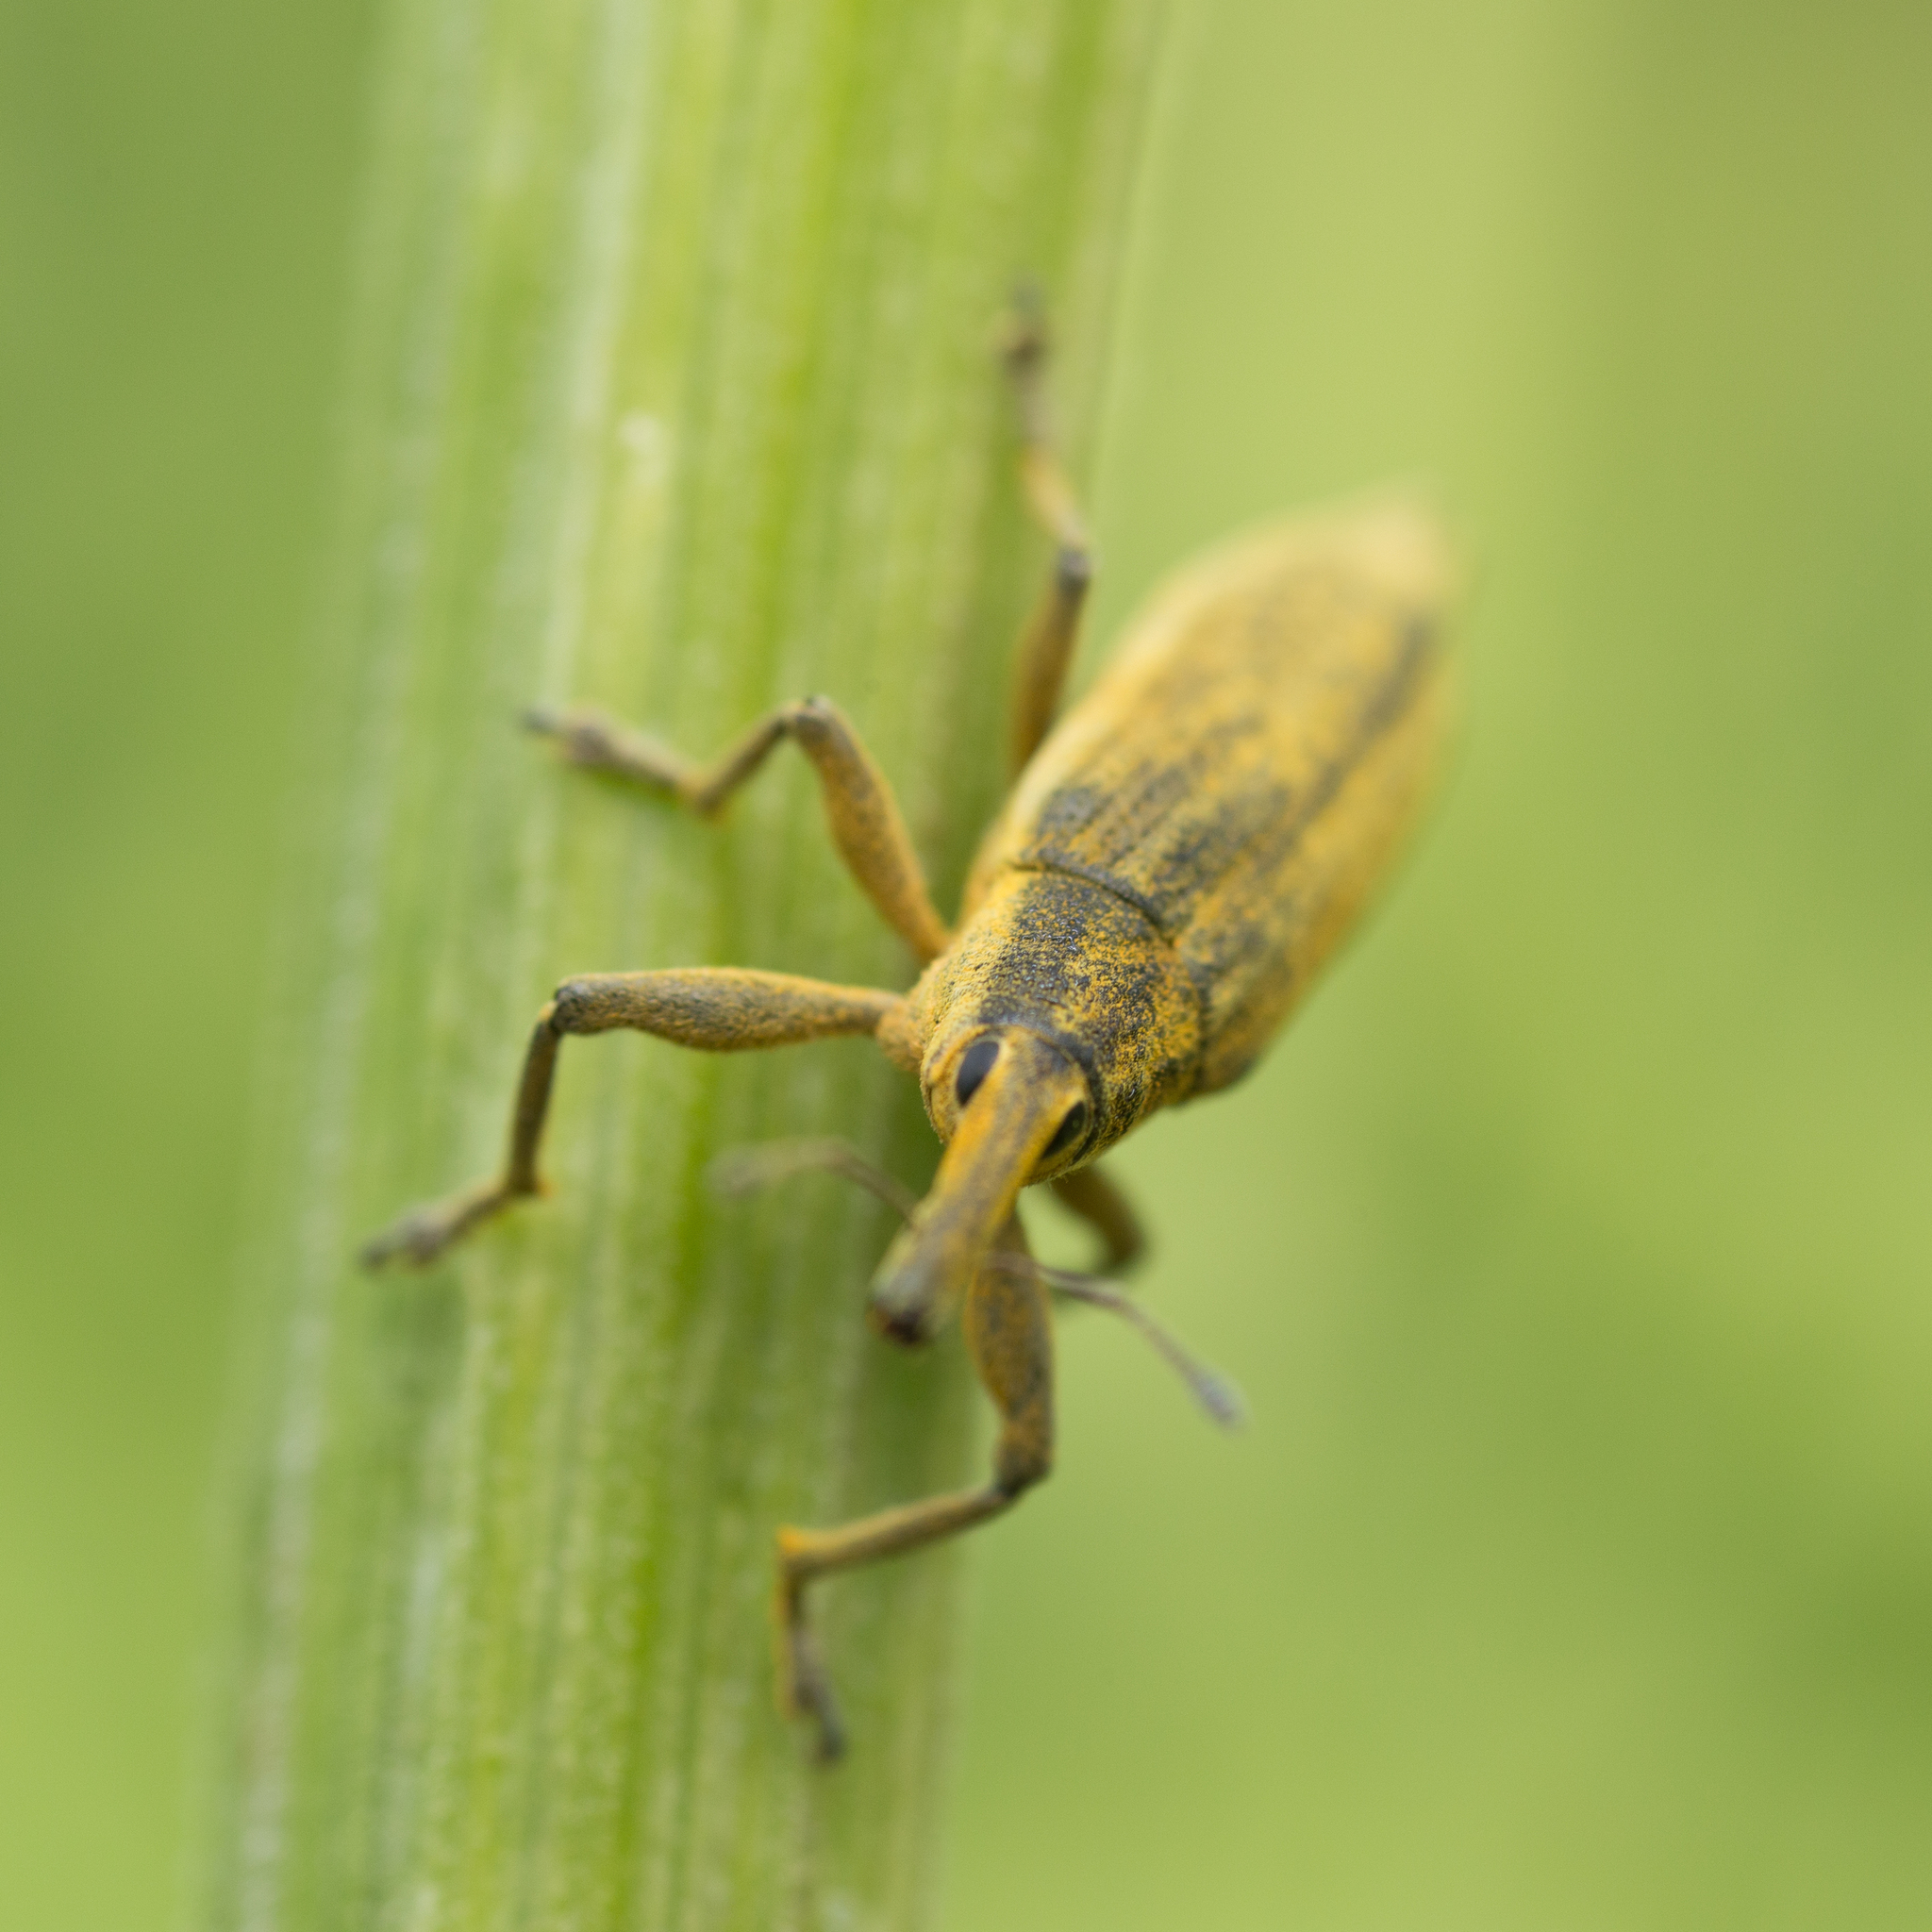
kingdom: Animalia
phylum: Arthropoda
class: Insecta
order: Coleoptera
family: Curculionidae
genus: Lixus
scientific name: Lixus iridis
